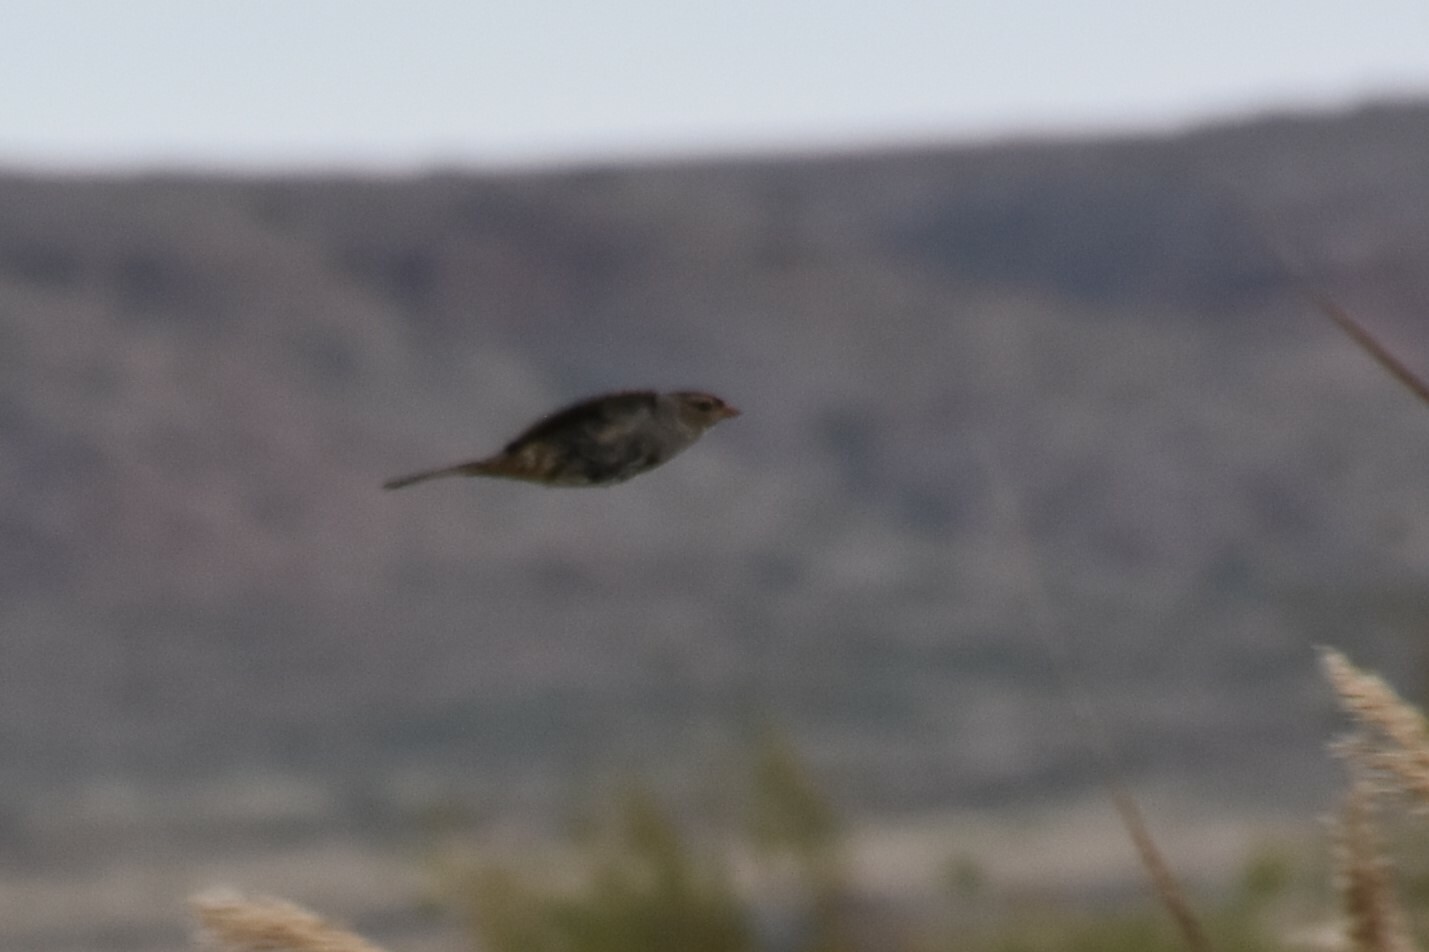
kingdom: Animalia
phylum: Chordata
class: Aves
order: Passeriformes
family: Passerellidae
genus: Zonotrichia
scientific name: Zonotrichia leucophrys
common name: White-crowned sparrow
